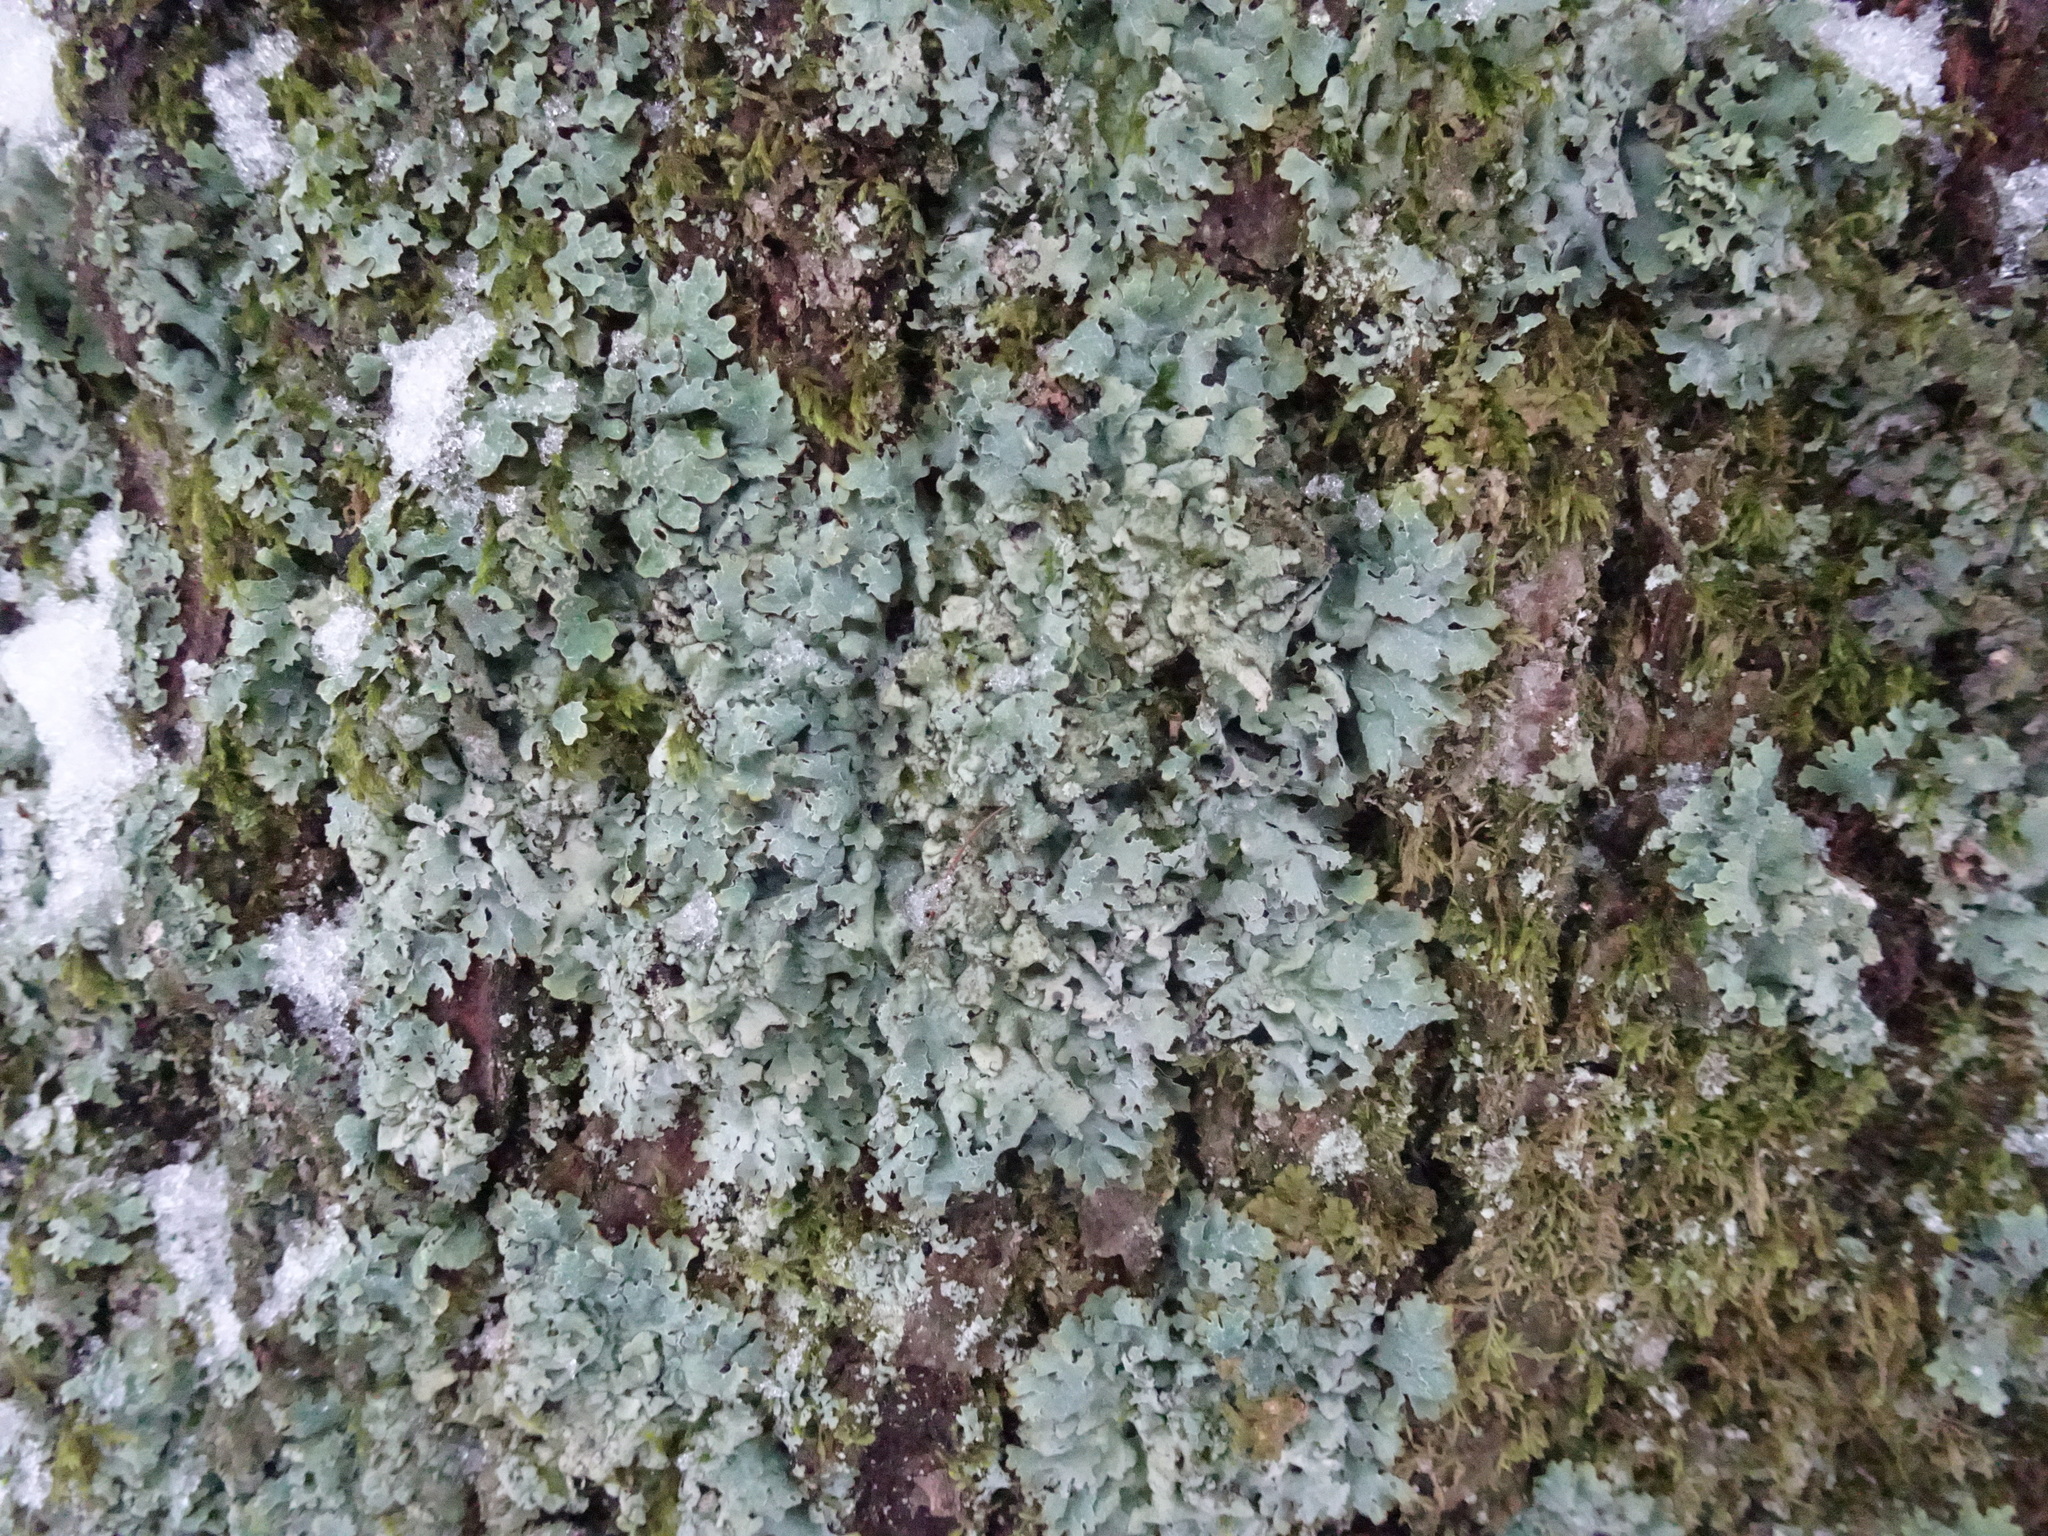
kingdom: Fungi
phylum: Ascomycota
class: Lecanoromycetes
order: Lecanorales
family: Parmeliaceae
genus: Parmelia
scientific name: Parmelia
